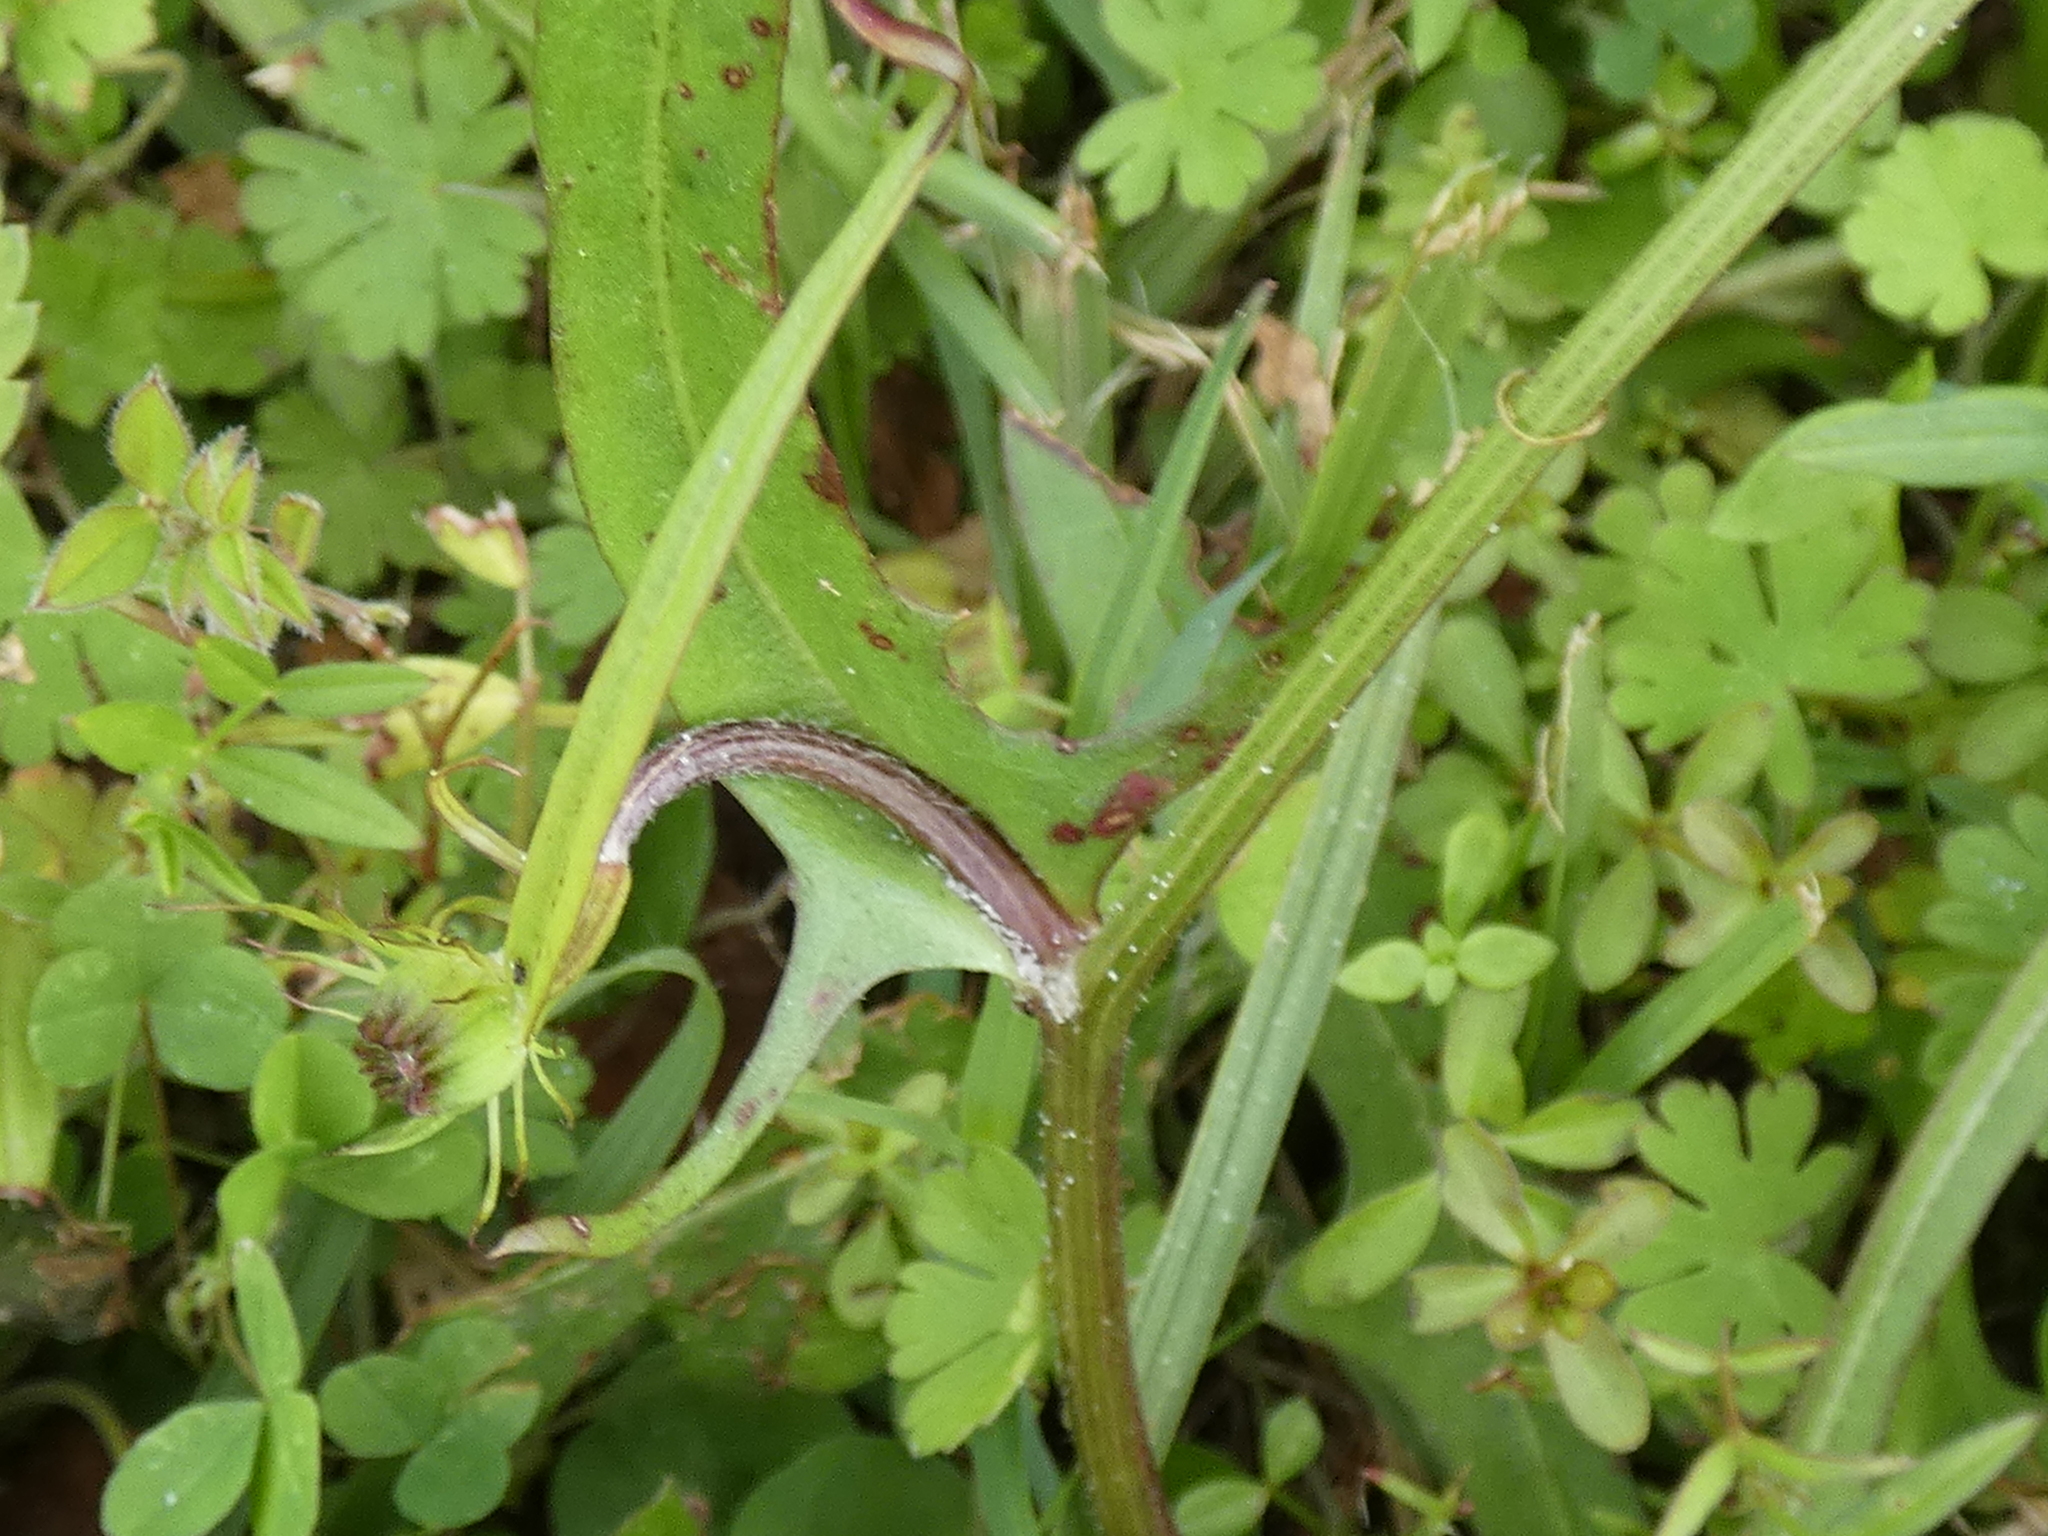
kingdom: Plantae
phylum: Tracheophyta
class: Magnoliopsida
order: Asterales
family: Asteraceae
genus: Pyrrhopappus
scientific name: Pyrrhopappus carolinianus
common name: Carolina desert-chicory
